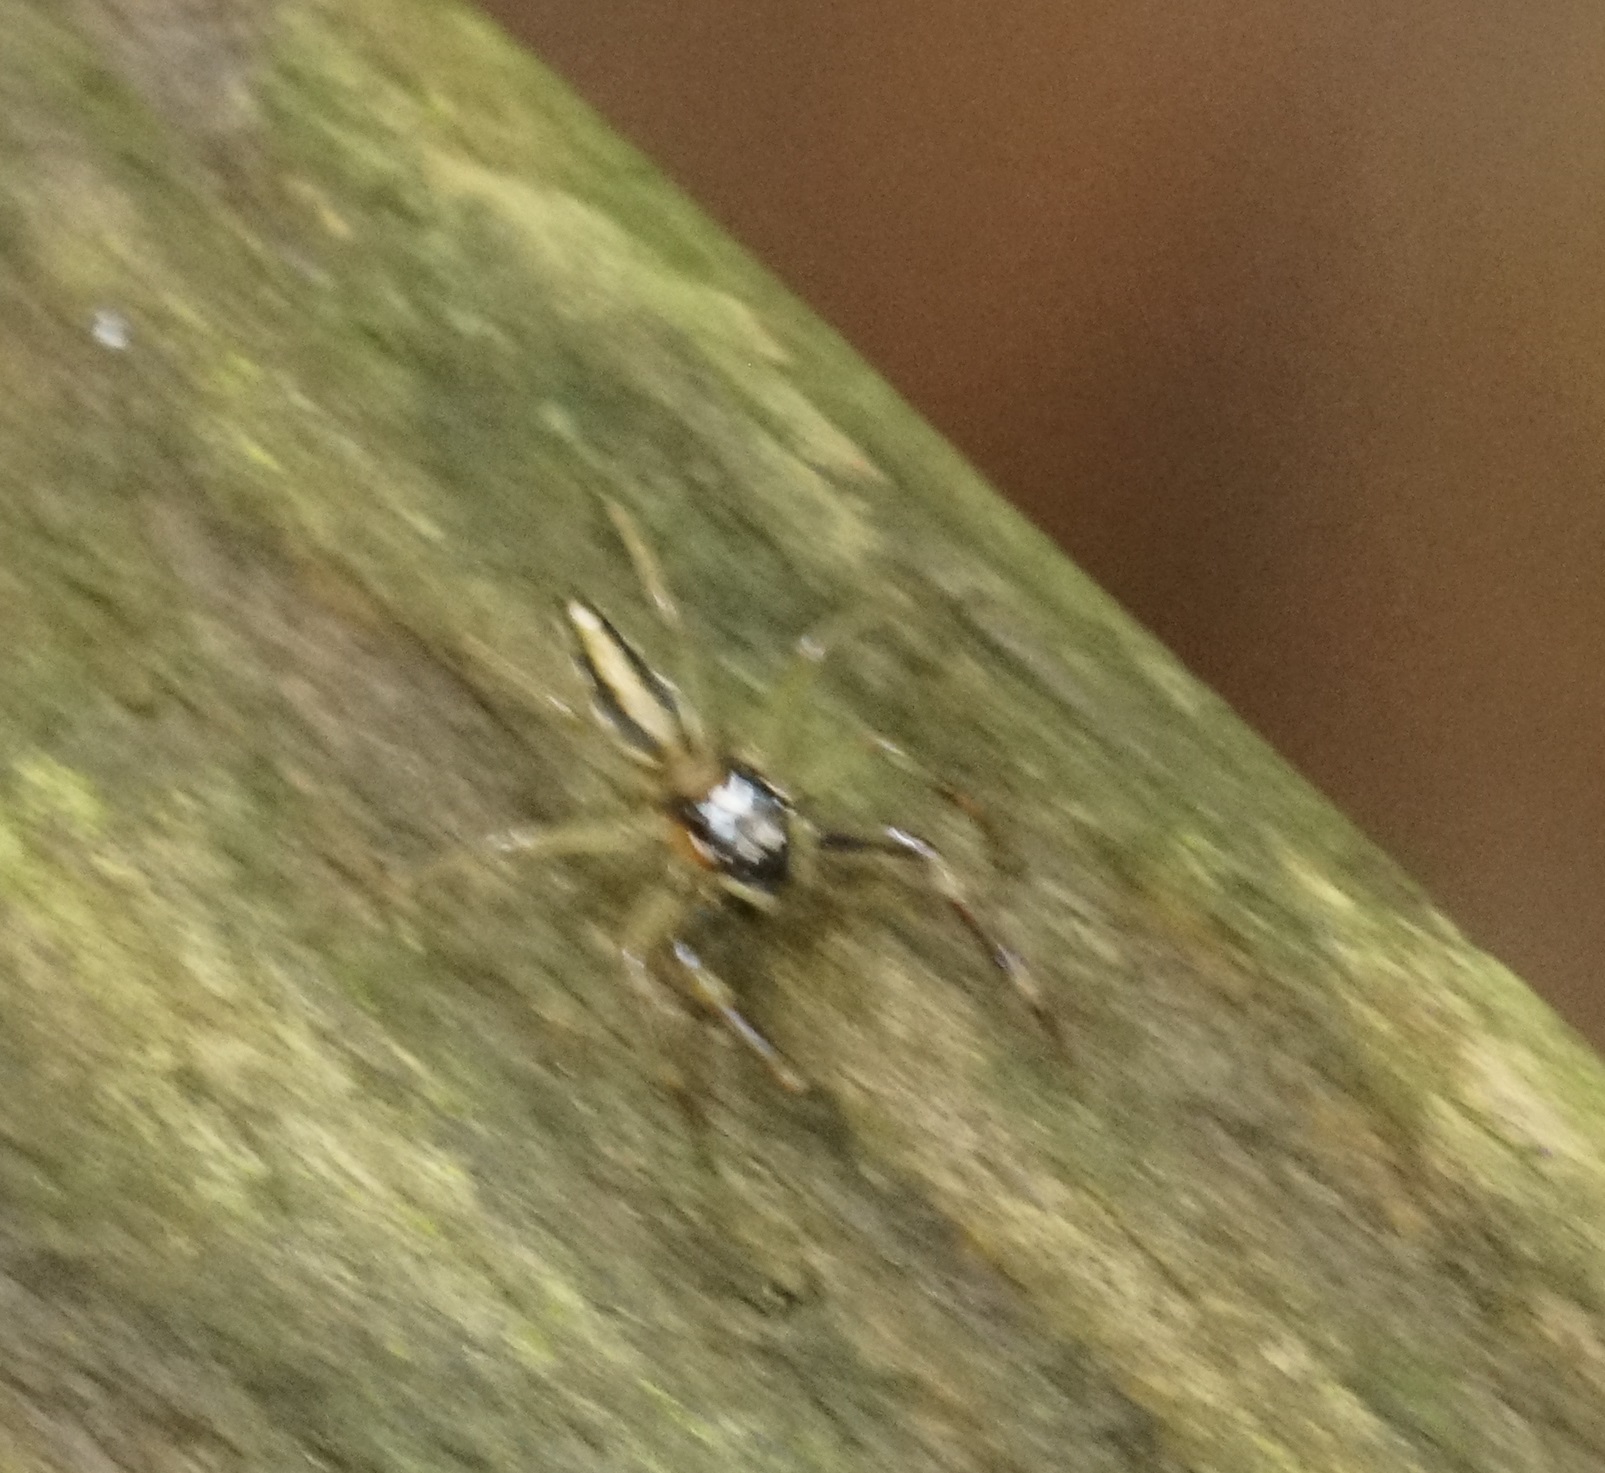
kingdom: Animalia
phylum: Arthropoda
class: Arachnida
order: Araneae
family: Salticidae
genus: Tauala
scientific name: Tauala lepidus
